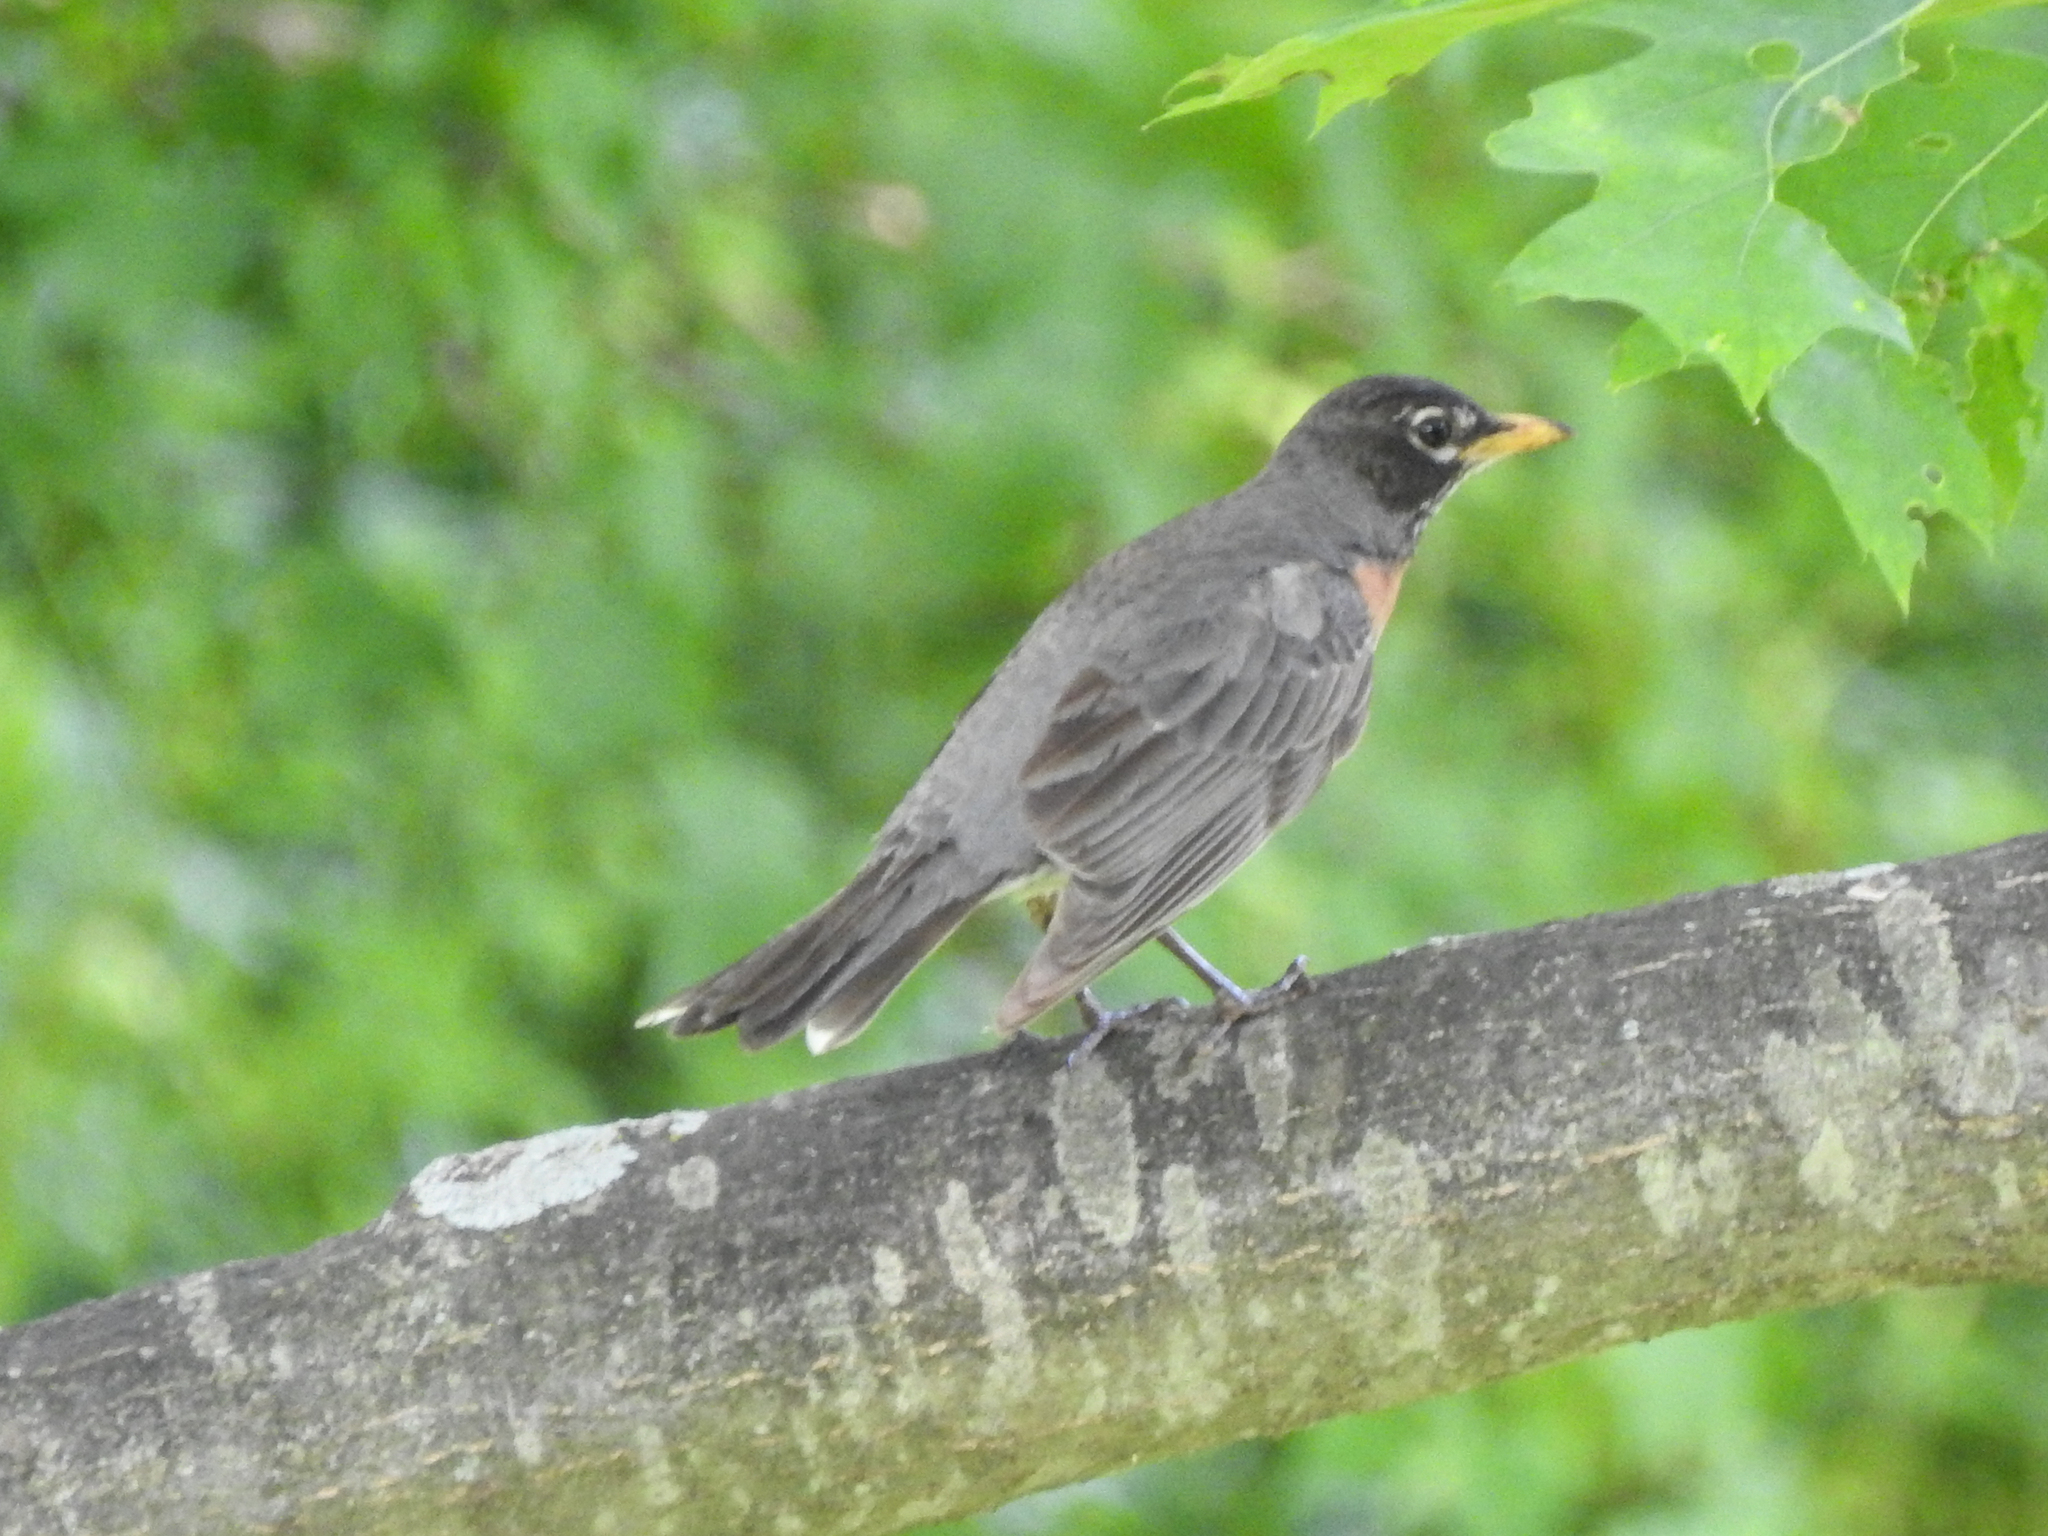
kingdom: Animalia
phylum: Chordata
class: Aves
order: Passeriformes
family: Turdidae
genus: Turdus
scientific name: Turdus migratorius
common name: American robin
